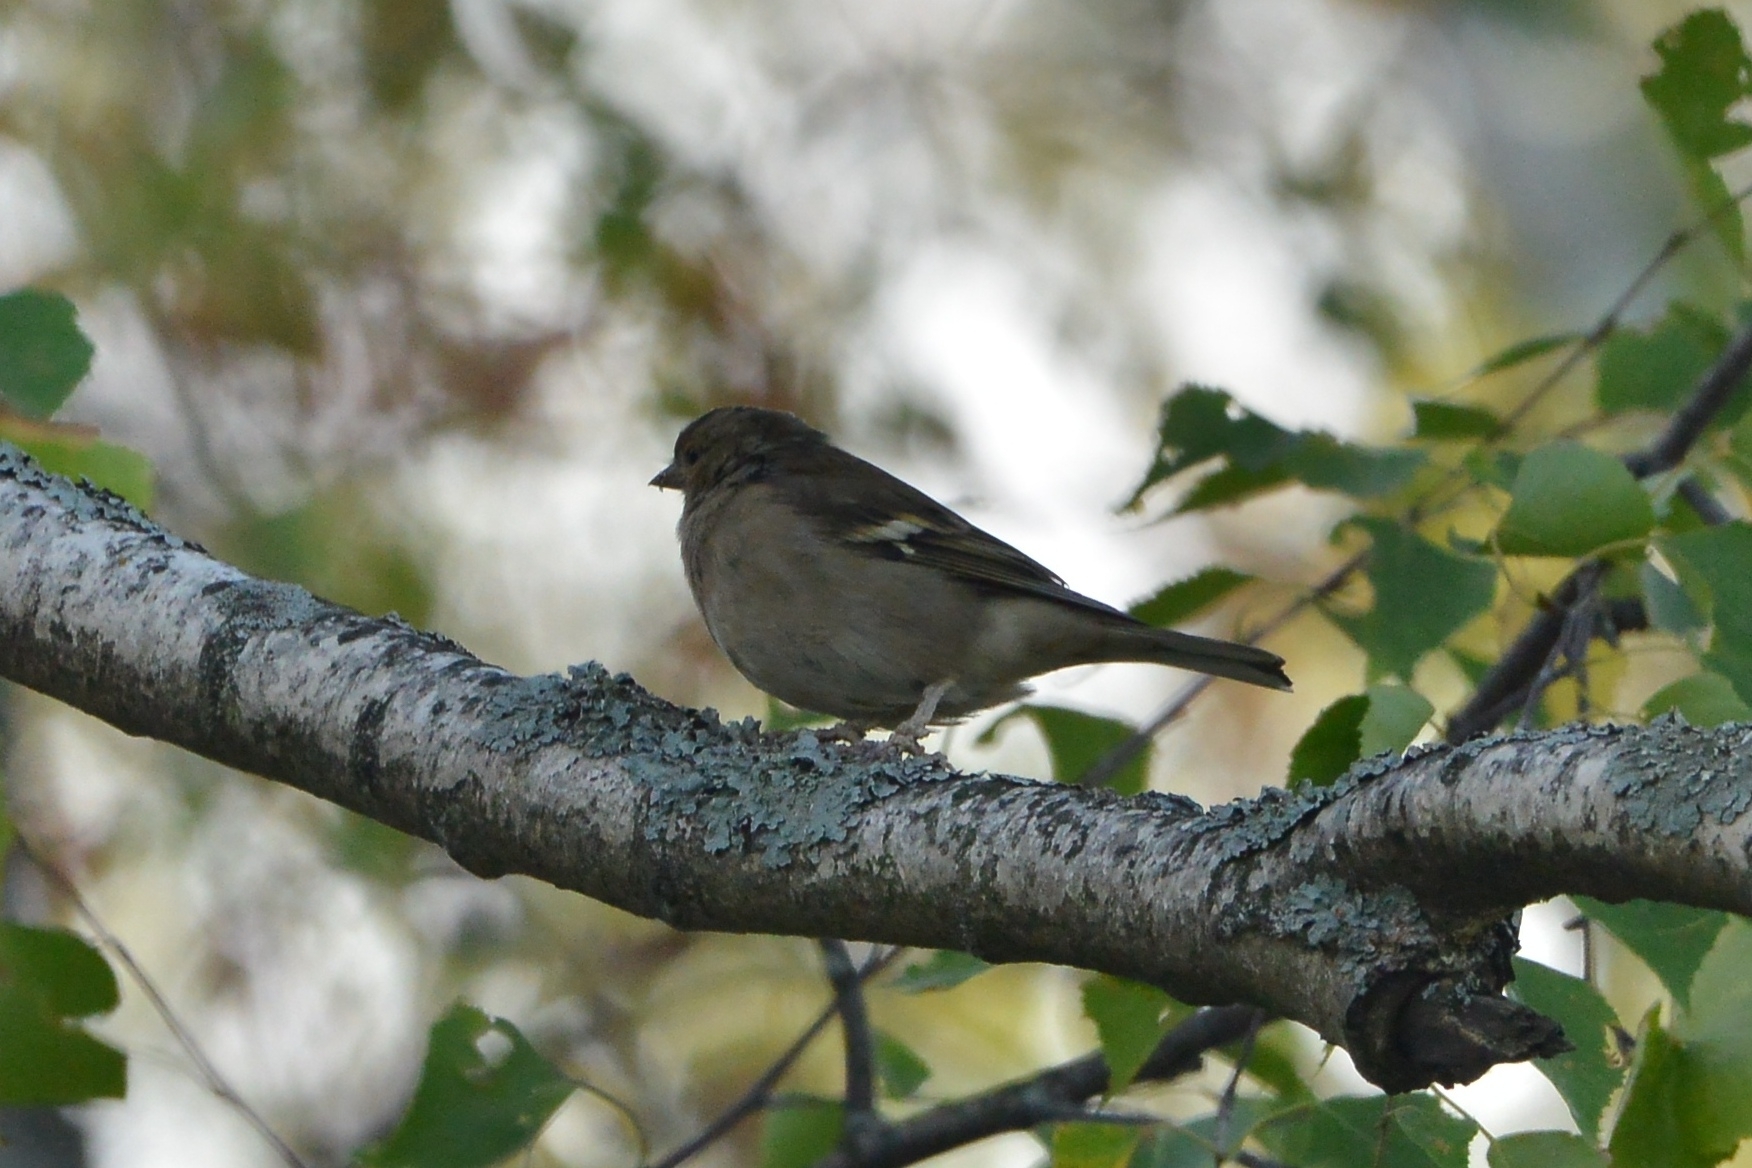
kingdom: Animalia
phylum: Chordata
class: Aves
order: Passeriformes
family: Fringillidae
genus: Fringilla
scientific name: Fringilla coelebs
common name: Common chaffinch
